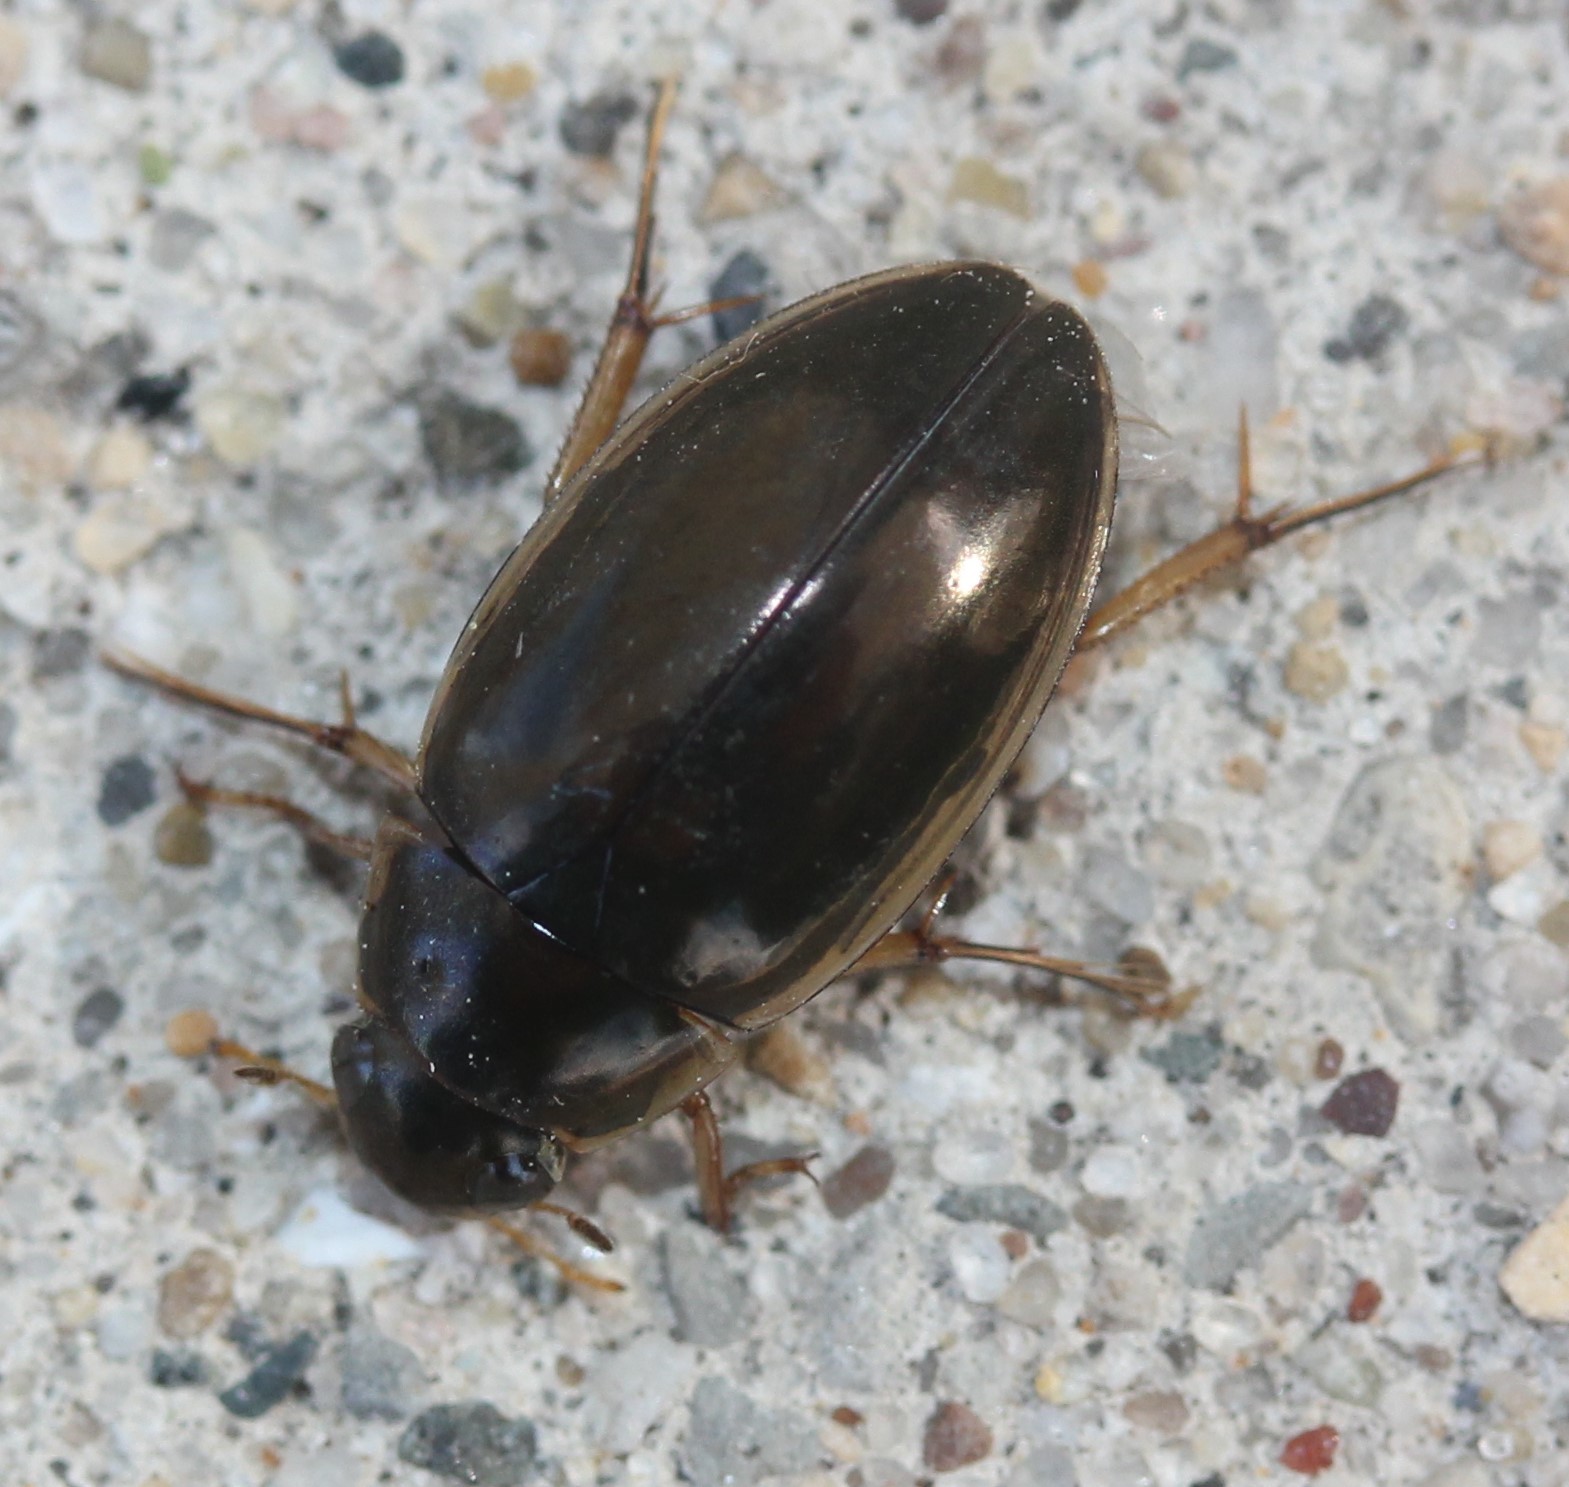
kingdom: Animalia
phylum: Arthropoda
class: Insecta
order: Coleoptera
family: Hydrophilidae
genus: Tropisternus
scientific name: Tropisternus lateralis
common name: Lateral-banded water scavenger beetle
